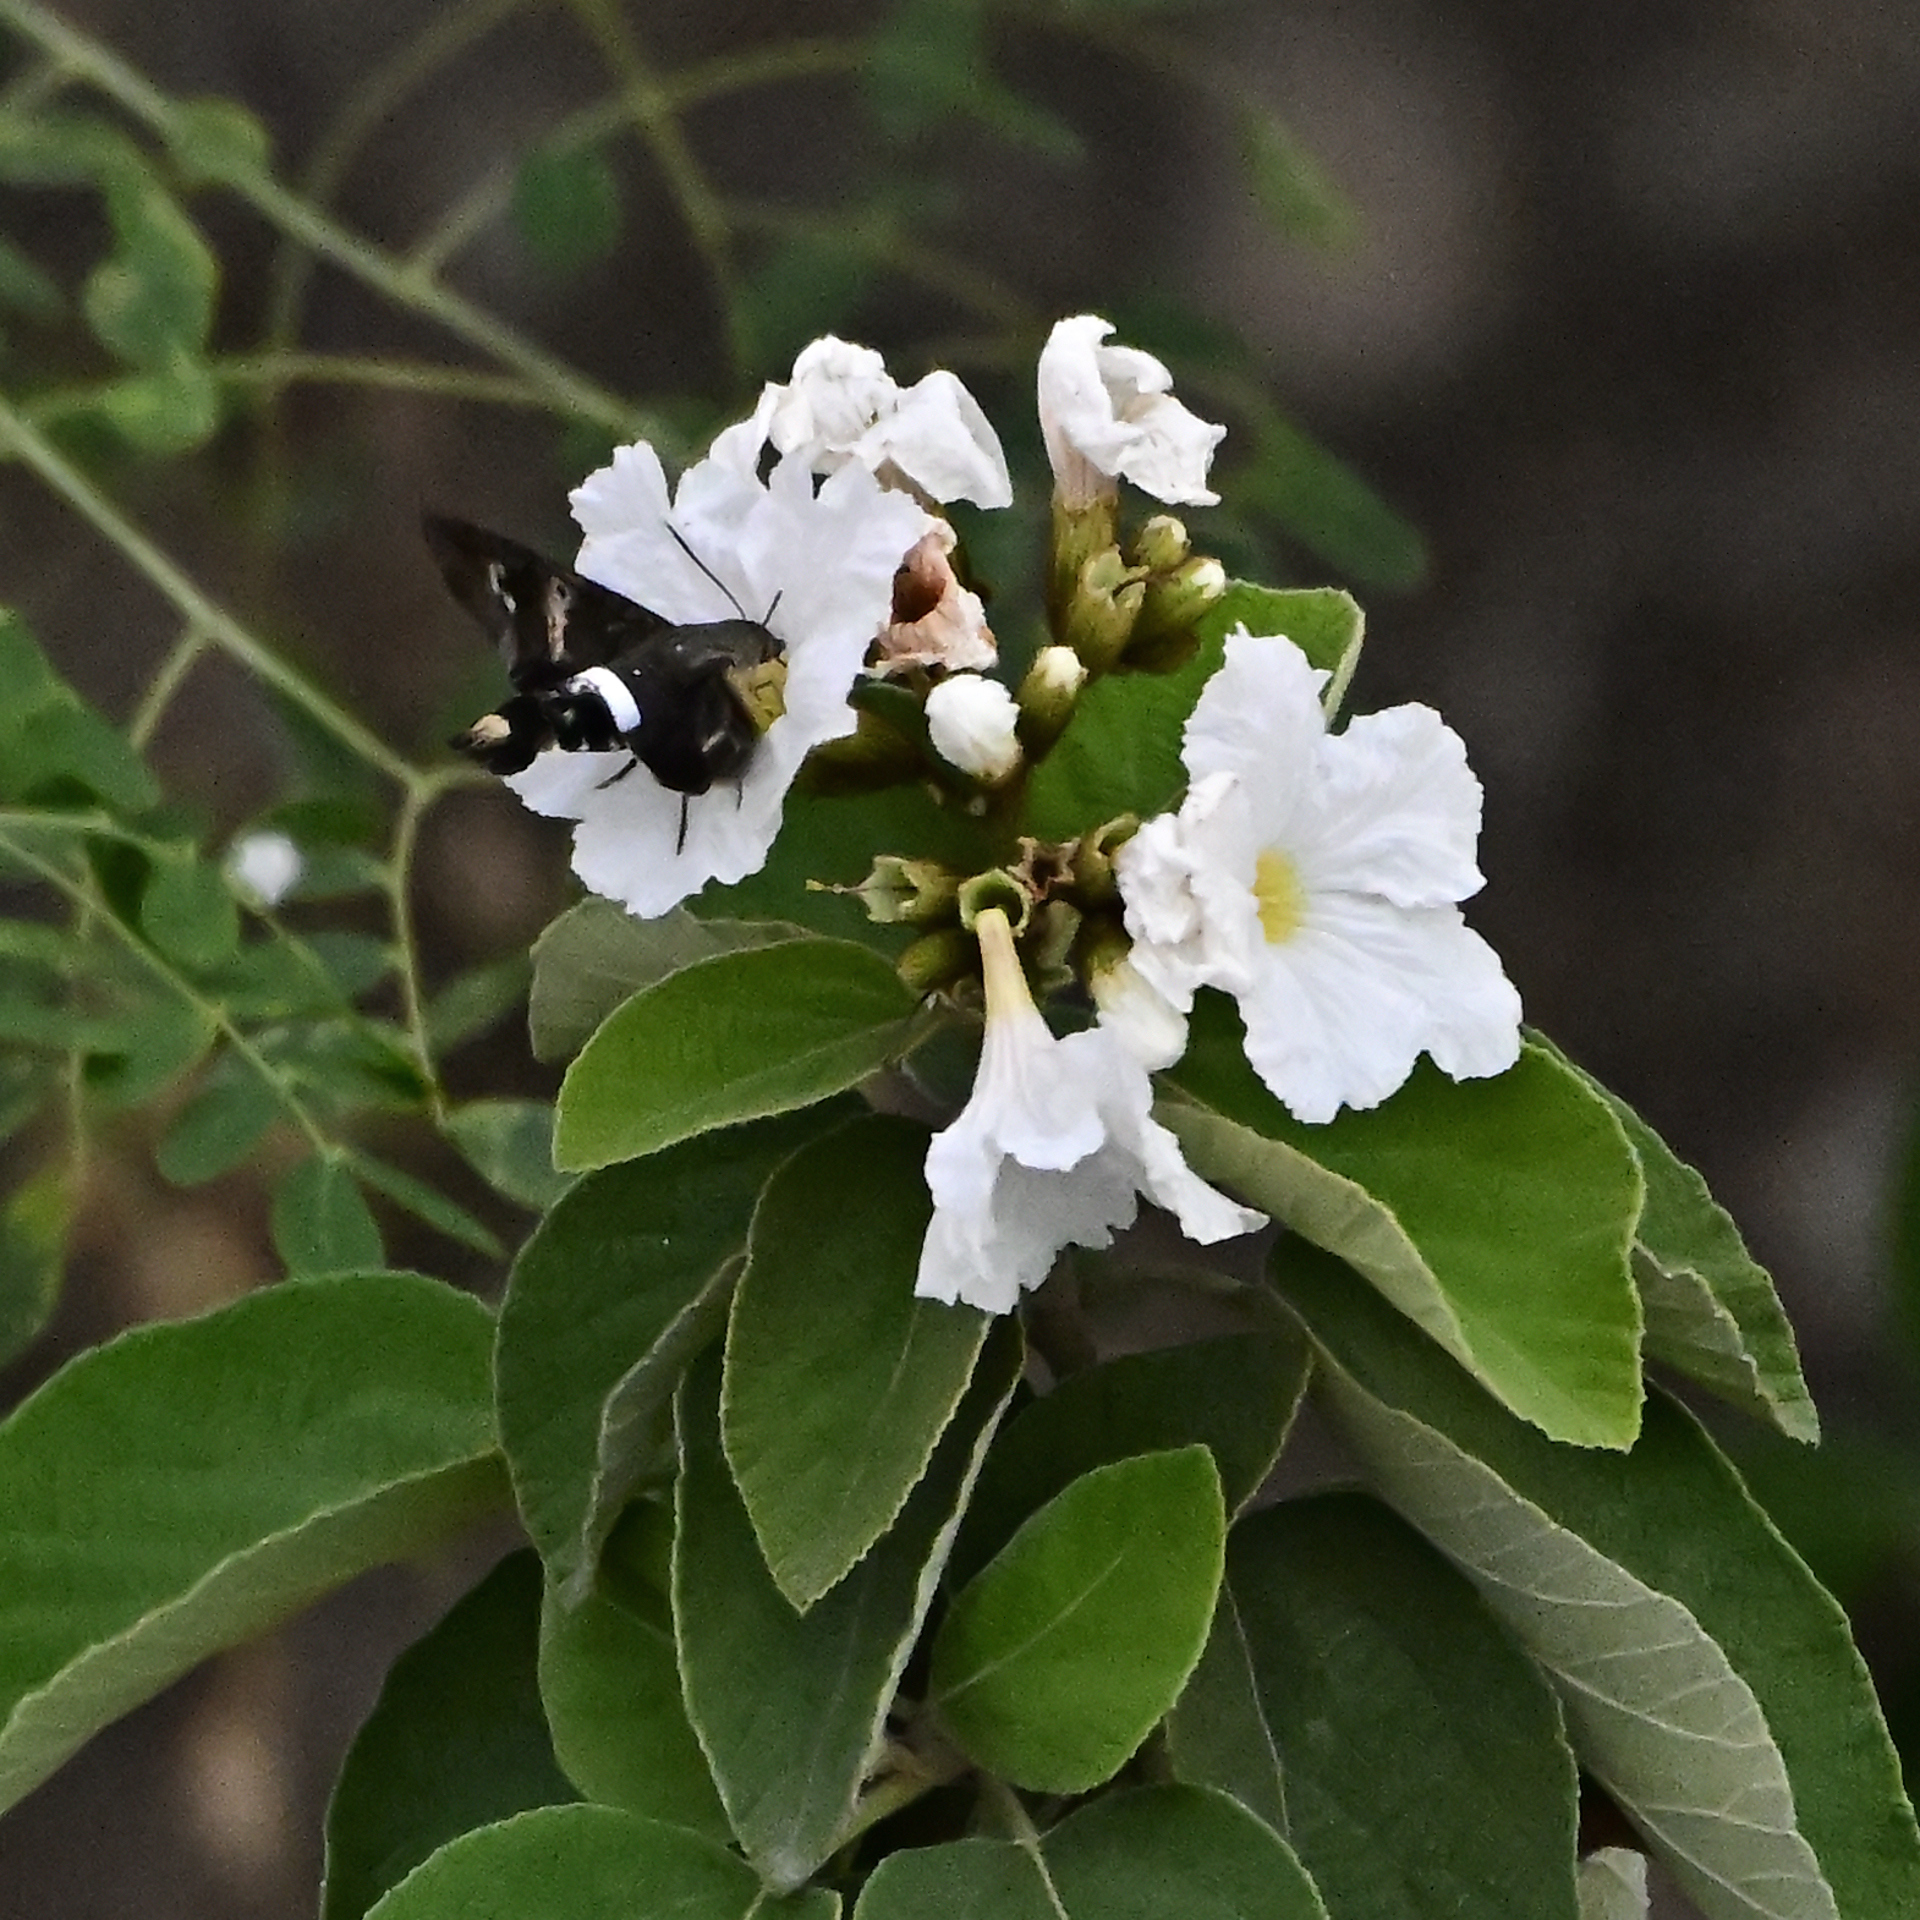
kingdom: Animalia
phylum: Arthropoda
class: Insecta
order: Lepidoptera
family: Sphingidae
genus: Aellopos
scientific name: Aellopos clavipes
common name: Clavipes sphinx
